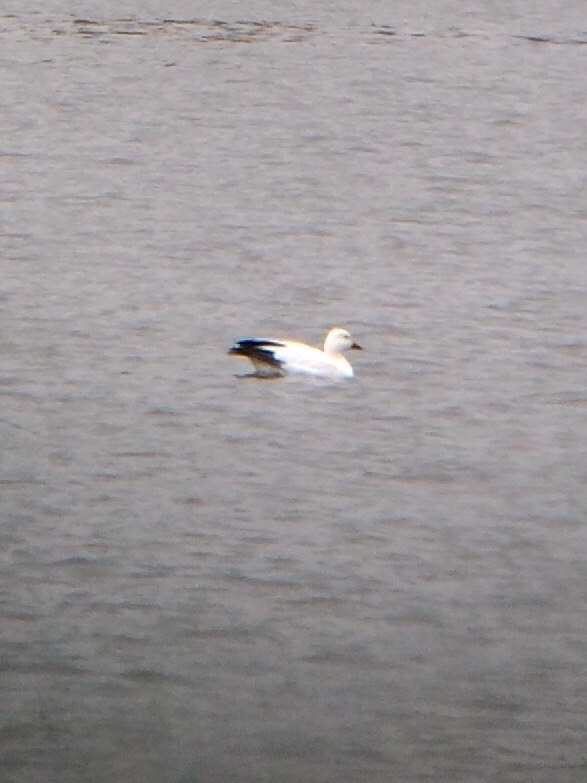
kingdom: Animalia
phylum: Chordata
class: Aves
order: Anseriformes
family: Anatidae
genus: Anser
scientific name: Anser caerulescens
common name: Snow goose
